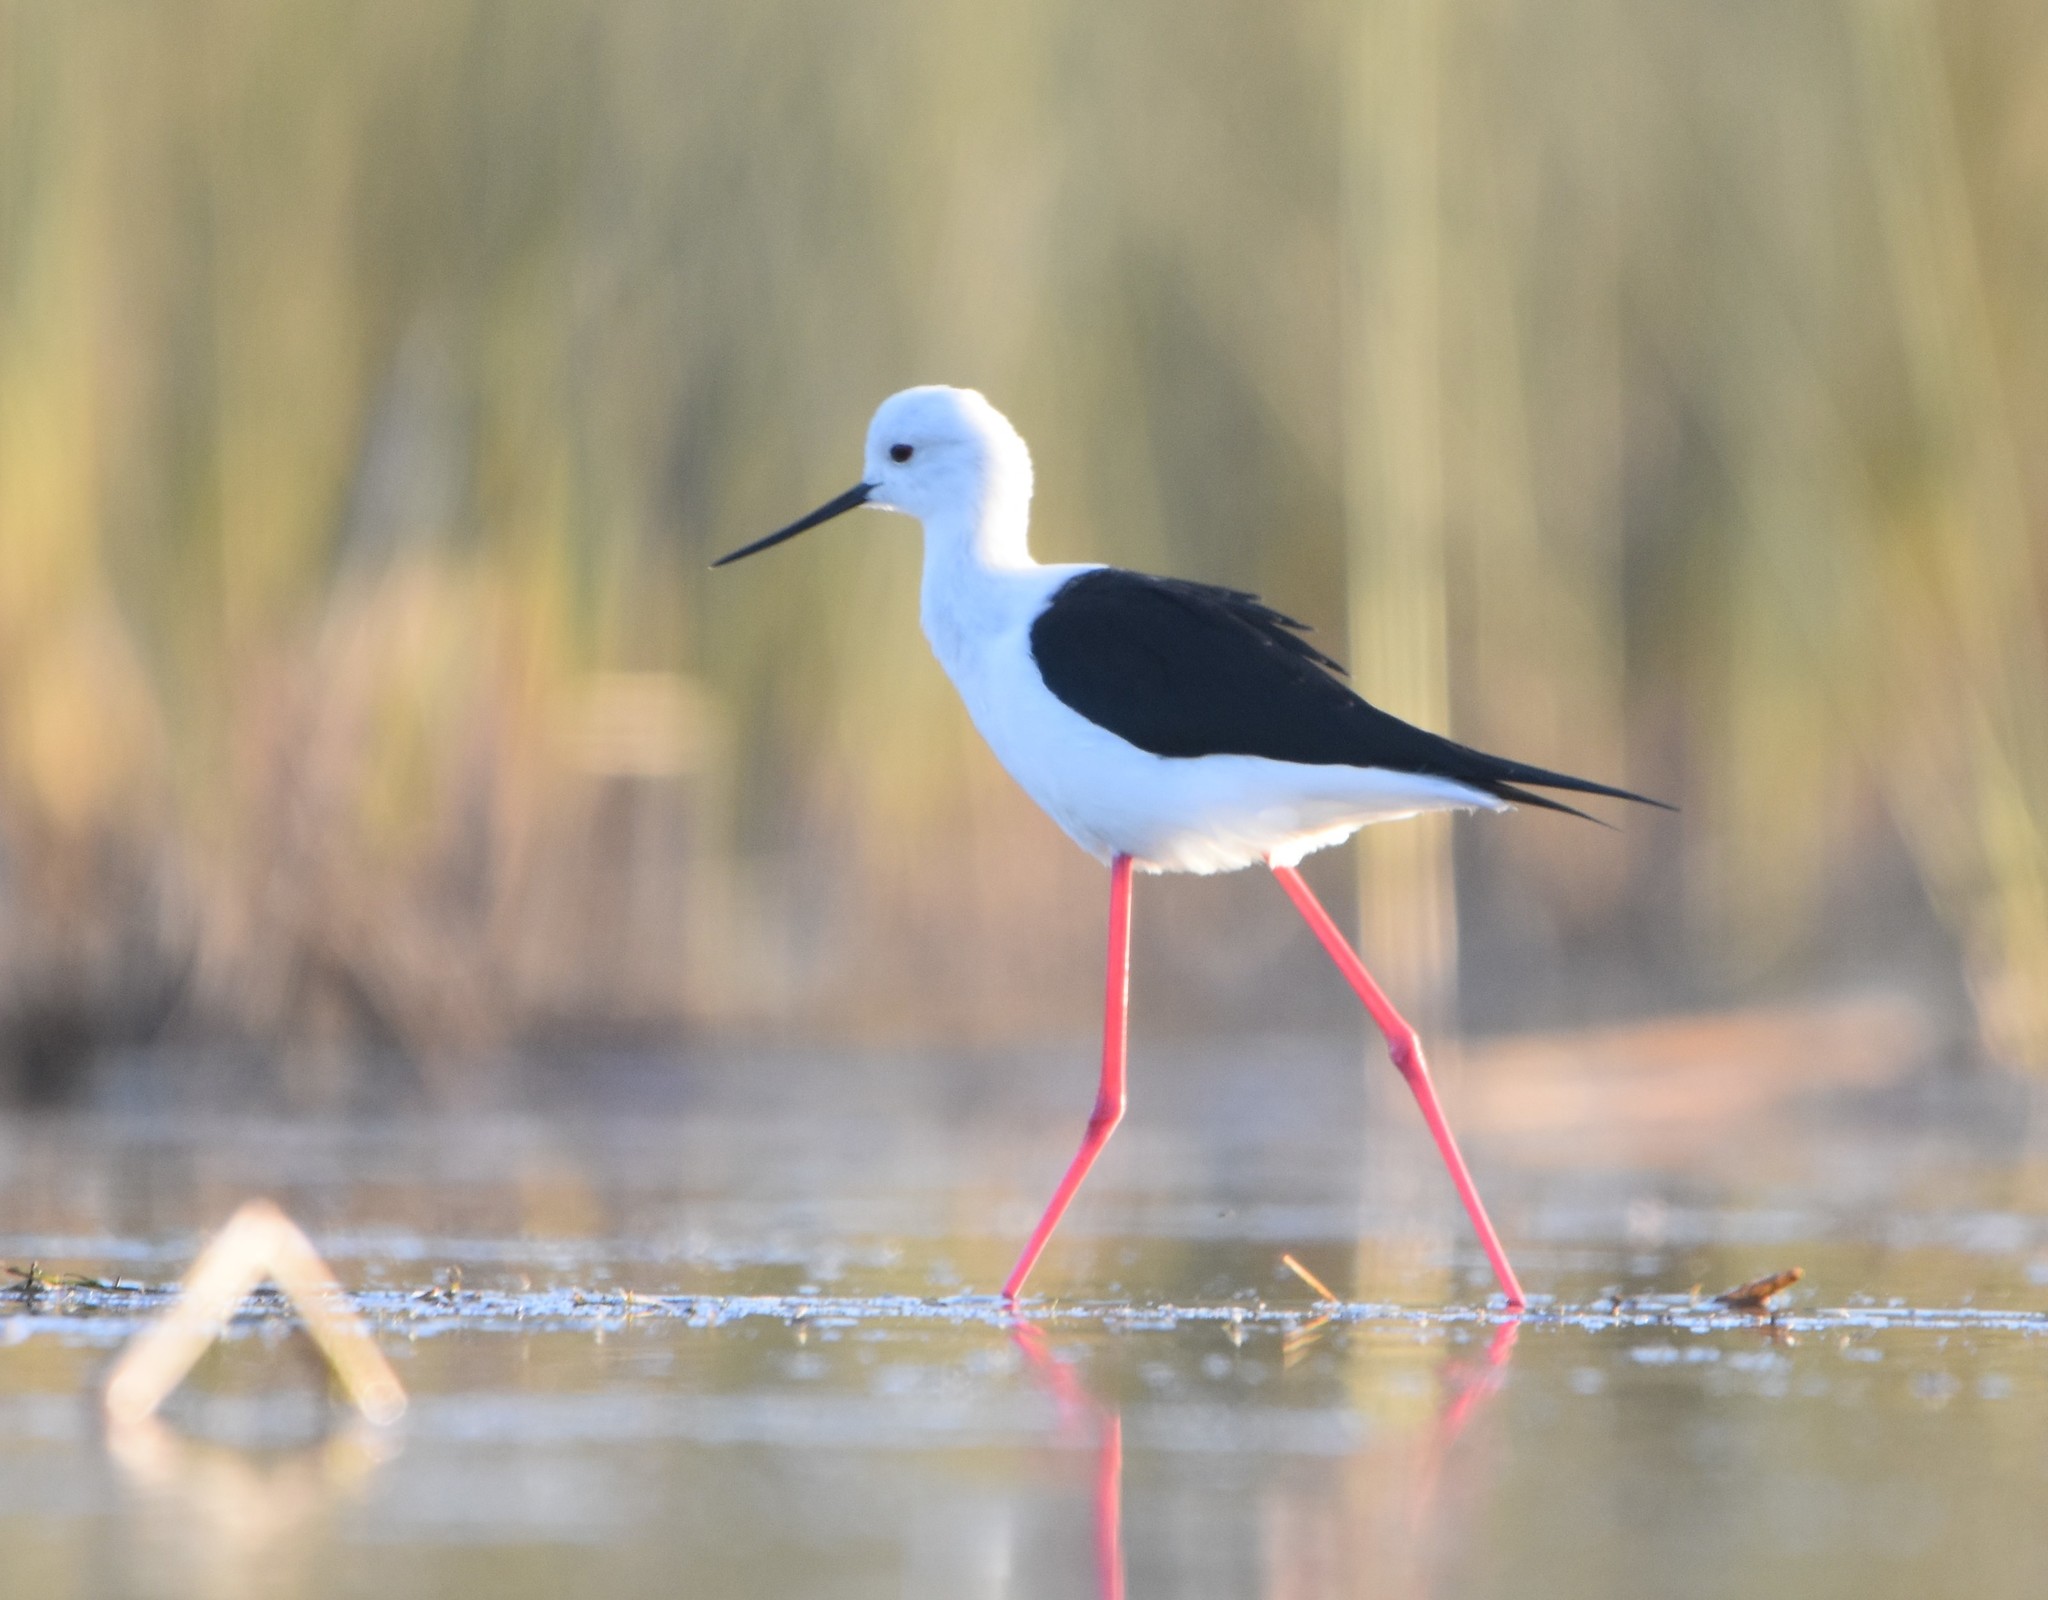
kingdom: Animalia
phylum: Chordata
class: Aves
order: Charadriiformes
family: Recurvirostridae
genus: Himantopus
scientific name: Himantopus himantopus
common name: Black-winged stilt
